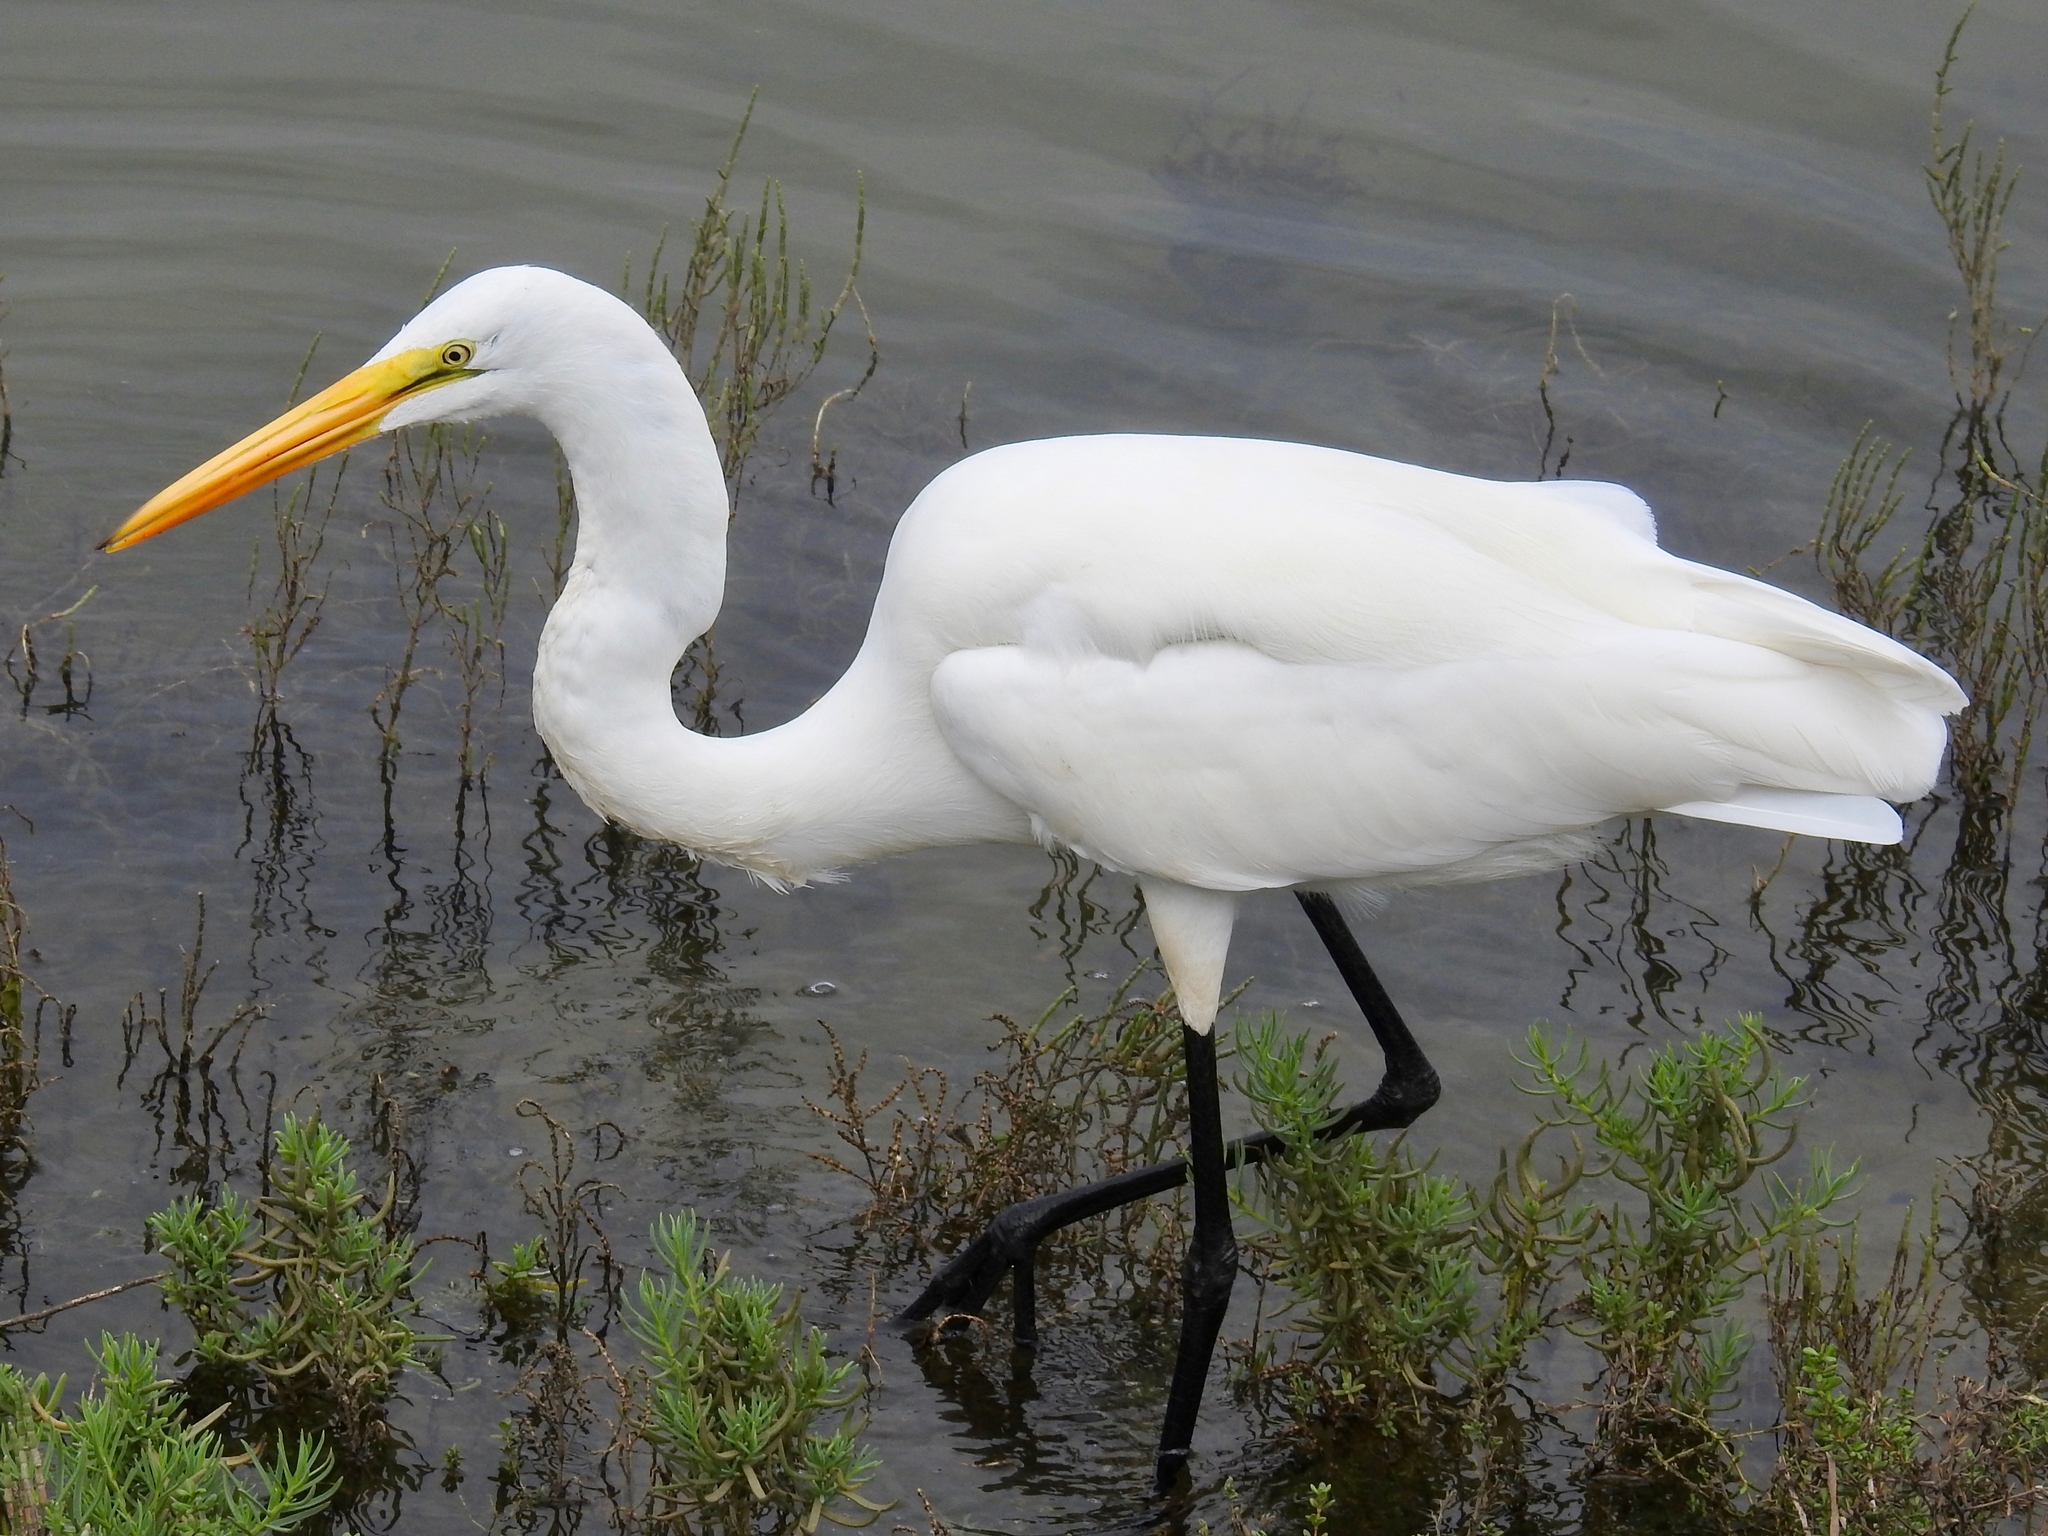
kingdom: Animalia
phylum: Chordata
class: Aves
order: Pelecaniformes
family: Ardeidae
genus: Ardea
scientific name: Ardea alba
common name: Great egret
